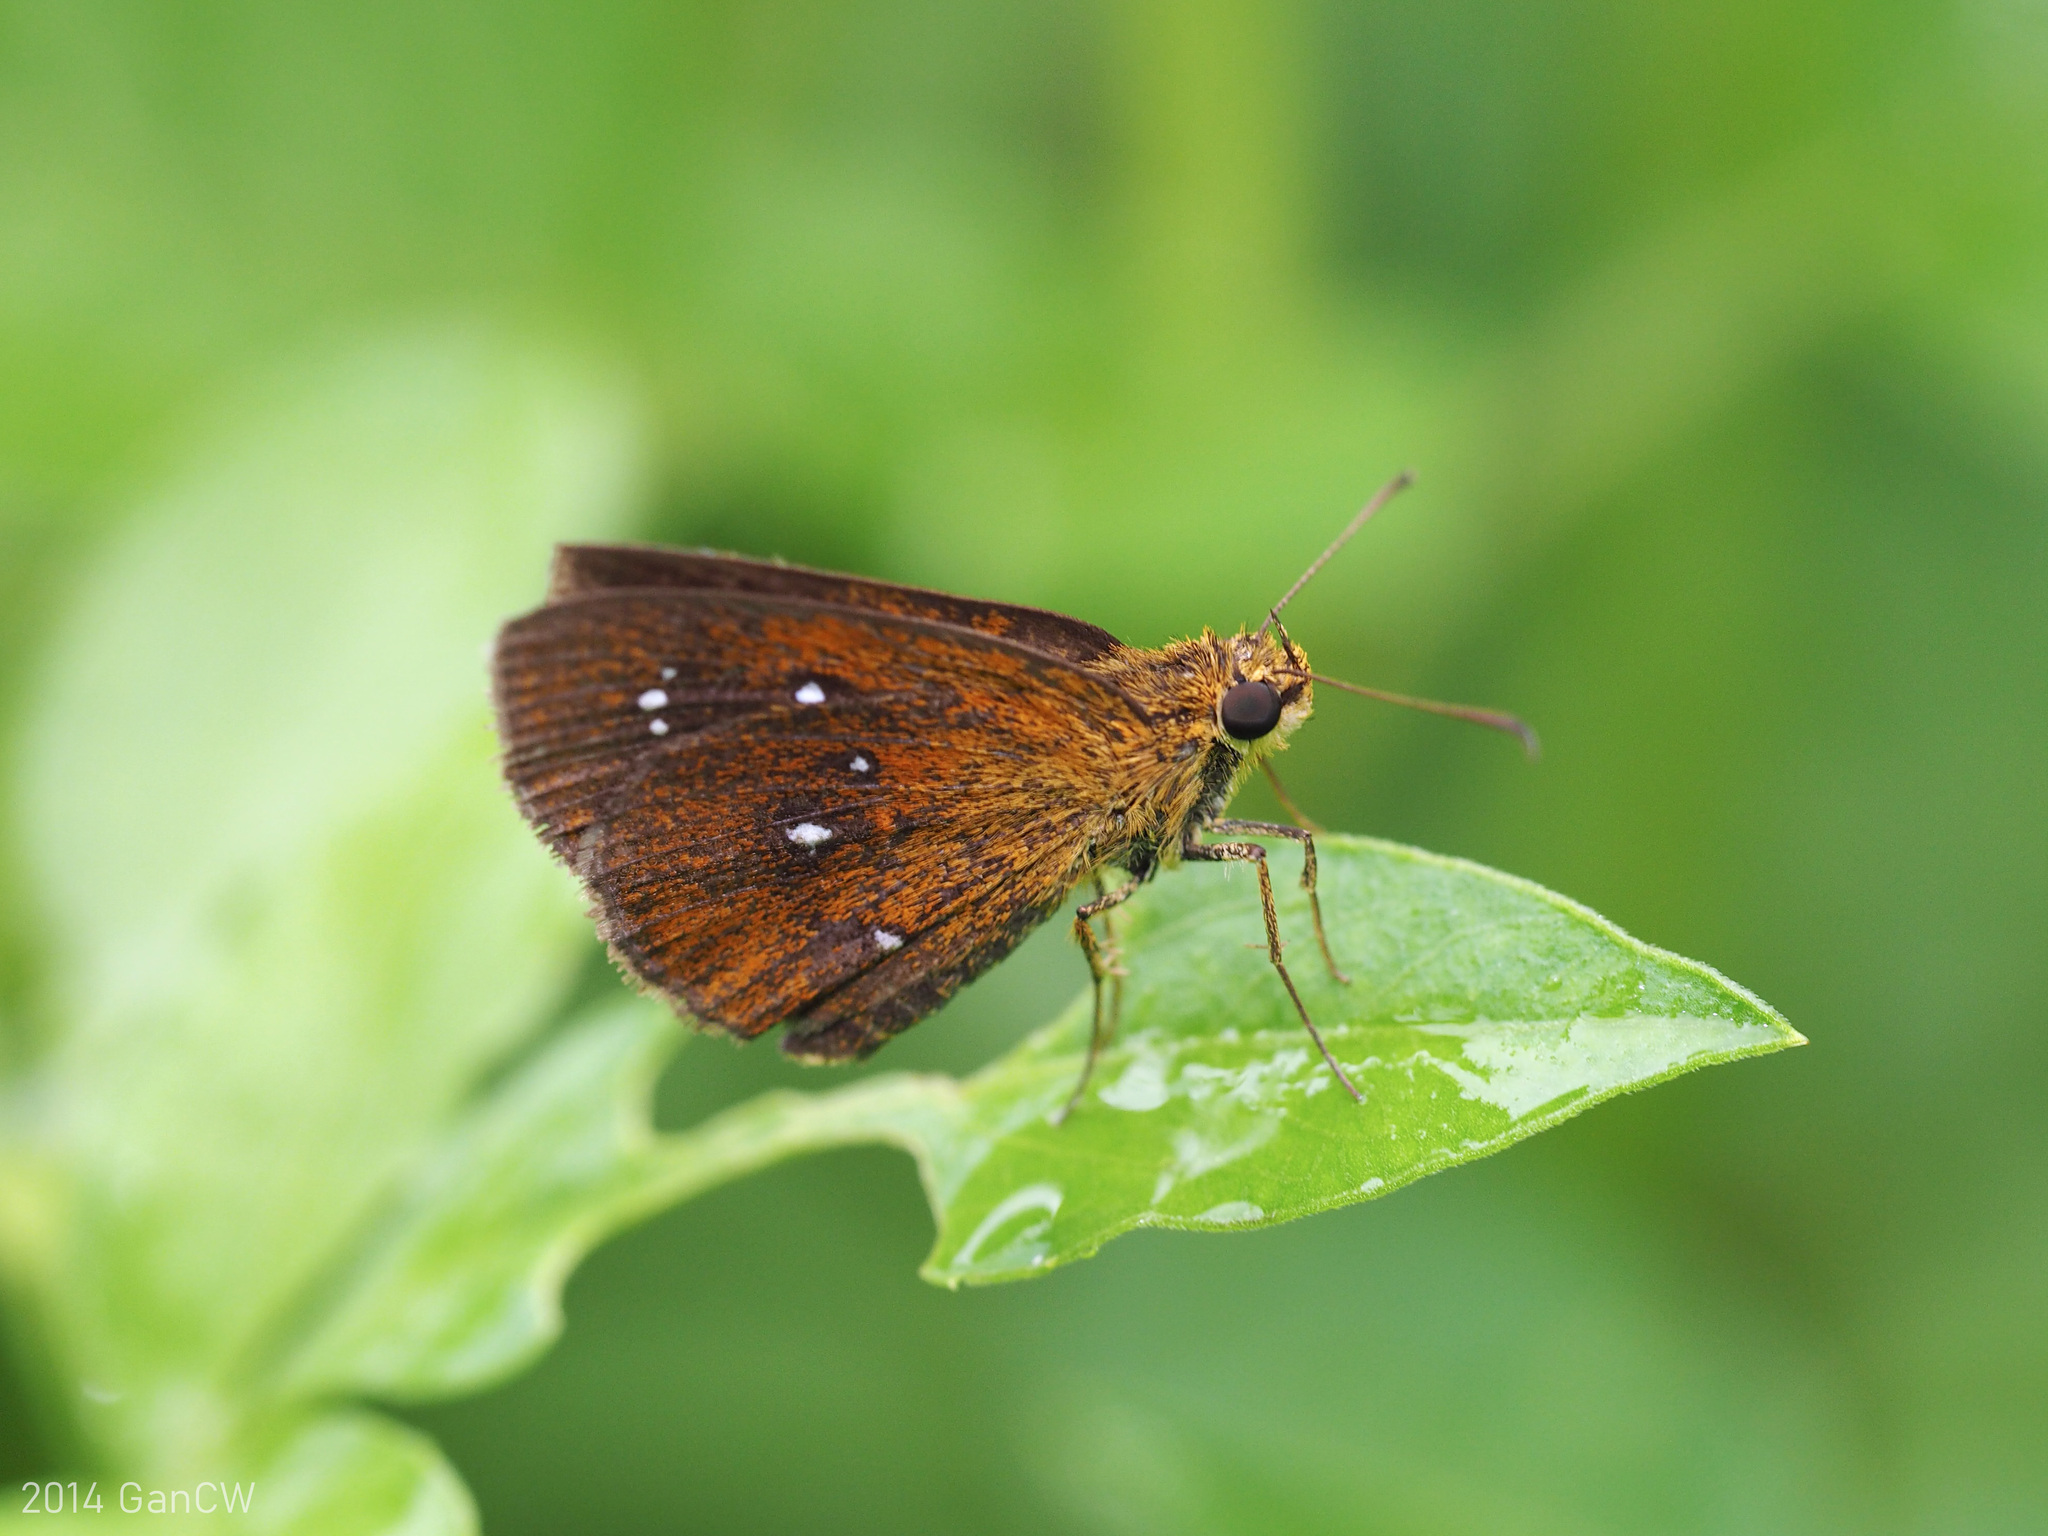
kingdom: Animalia
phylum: Arthropoda
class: Insecta
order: Lepidoptera
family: Hesperiidae
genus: Iambrix
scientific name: Iambrix salsala
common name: Chestnut bob
